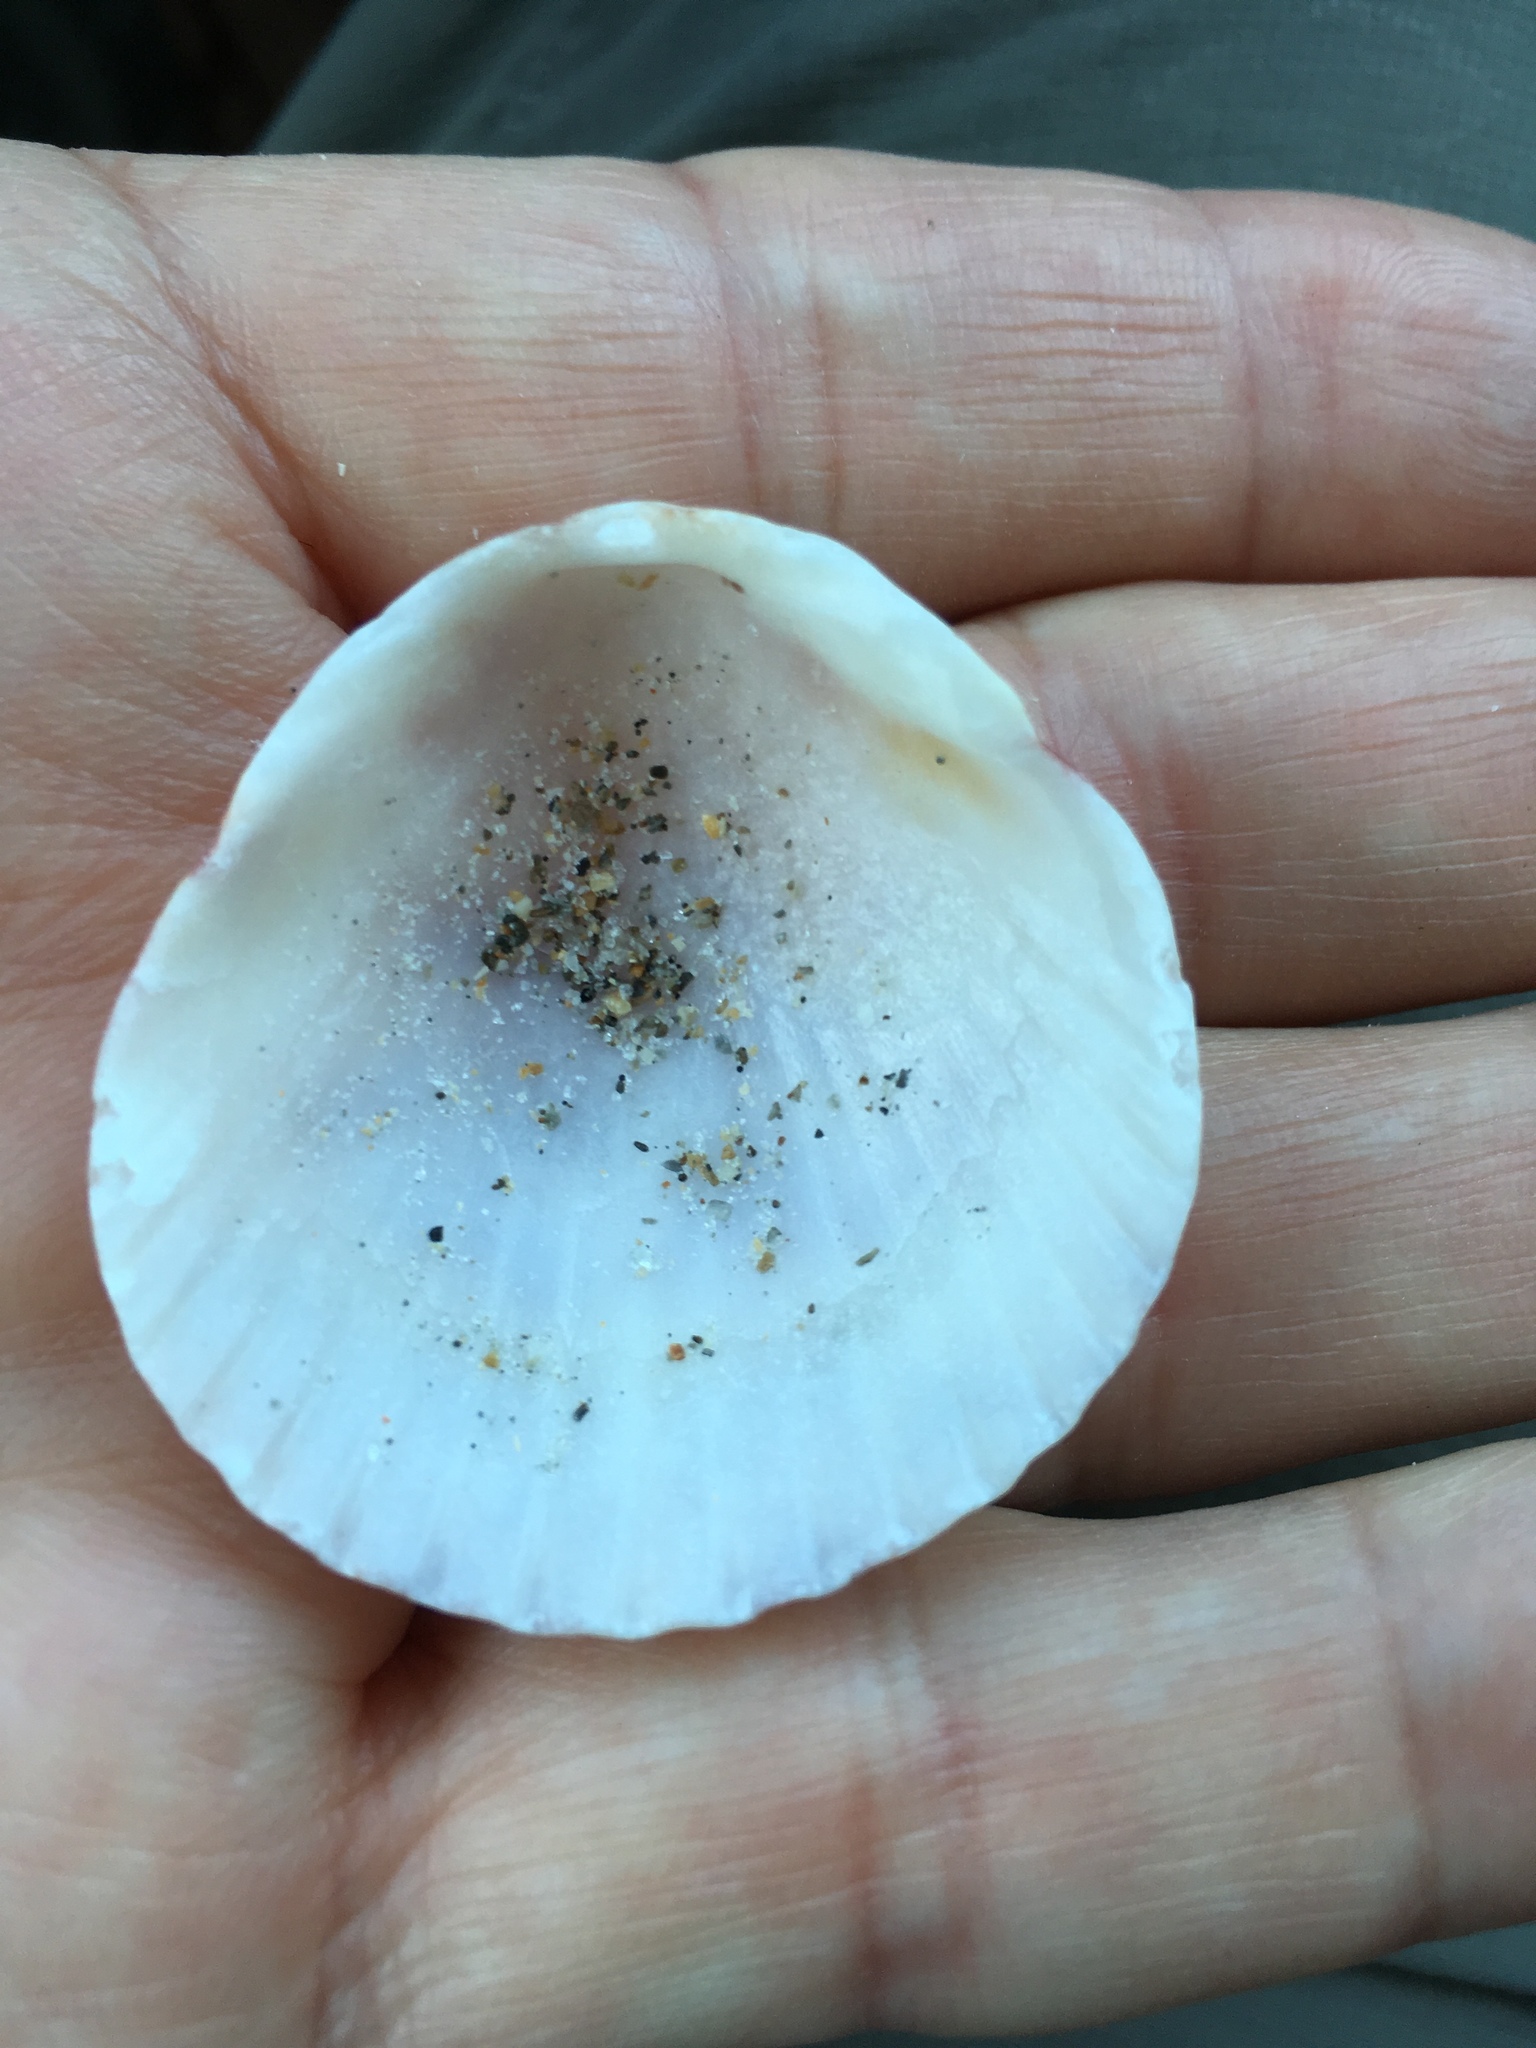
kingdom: Animalia
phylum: Mollusca
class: Bivalvia
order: Pectinida
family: Pectinidae
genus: Argopecten
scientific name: Argopecten gibbus
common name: Atlantic calico scallop
